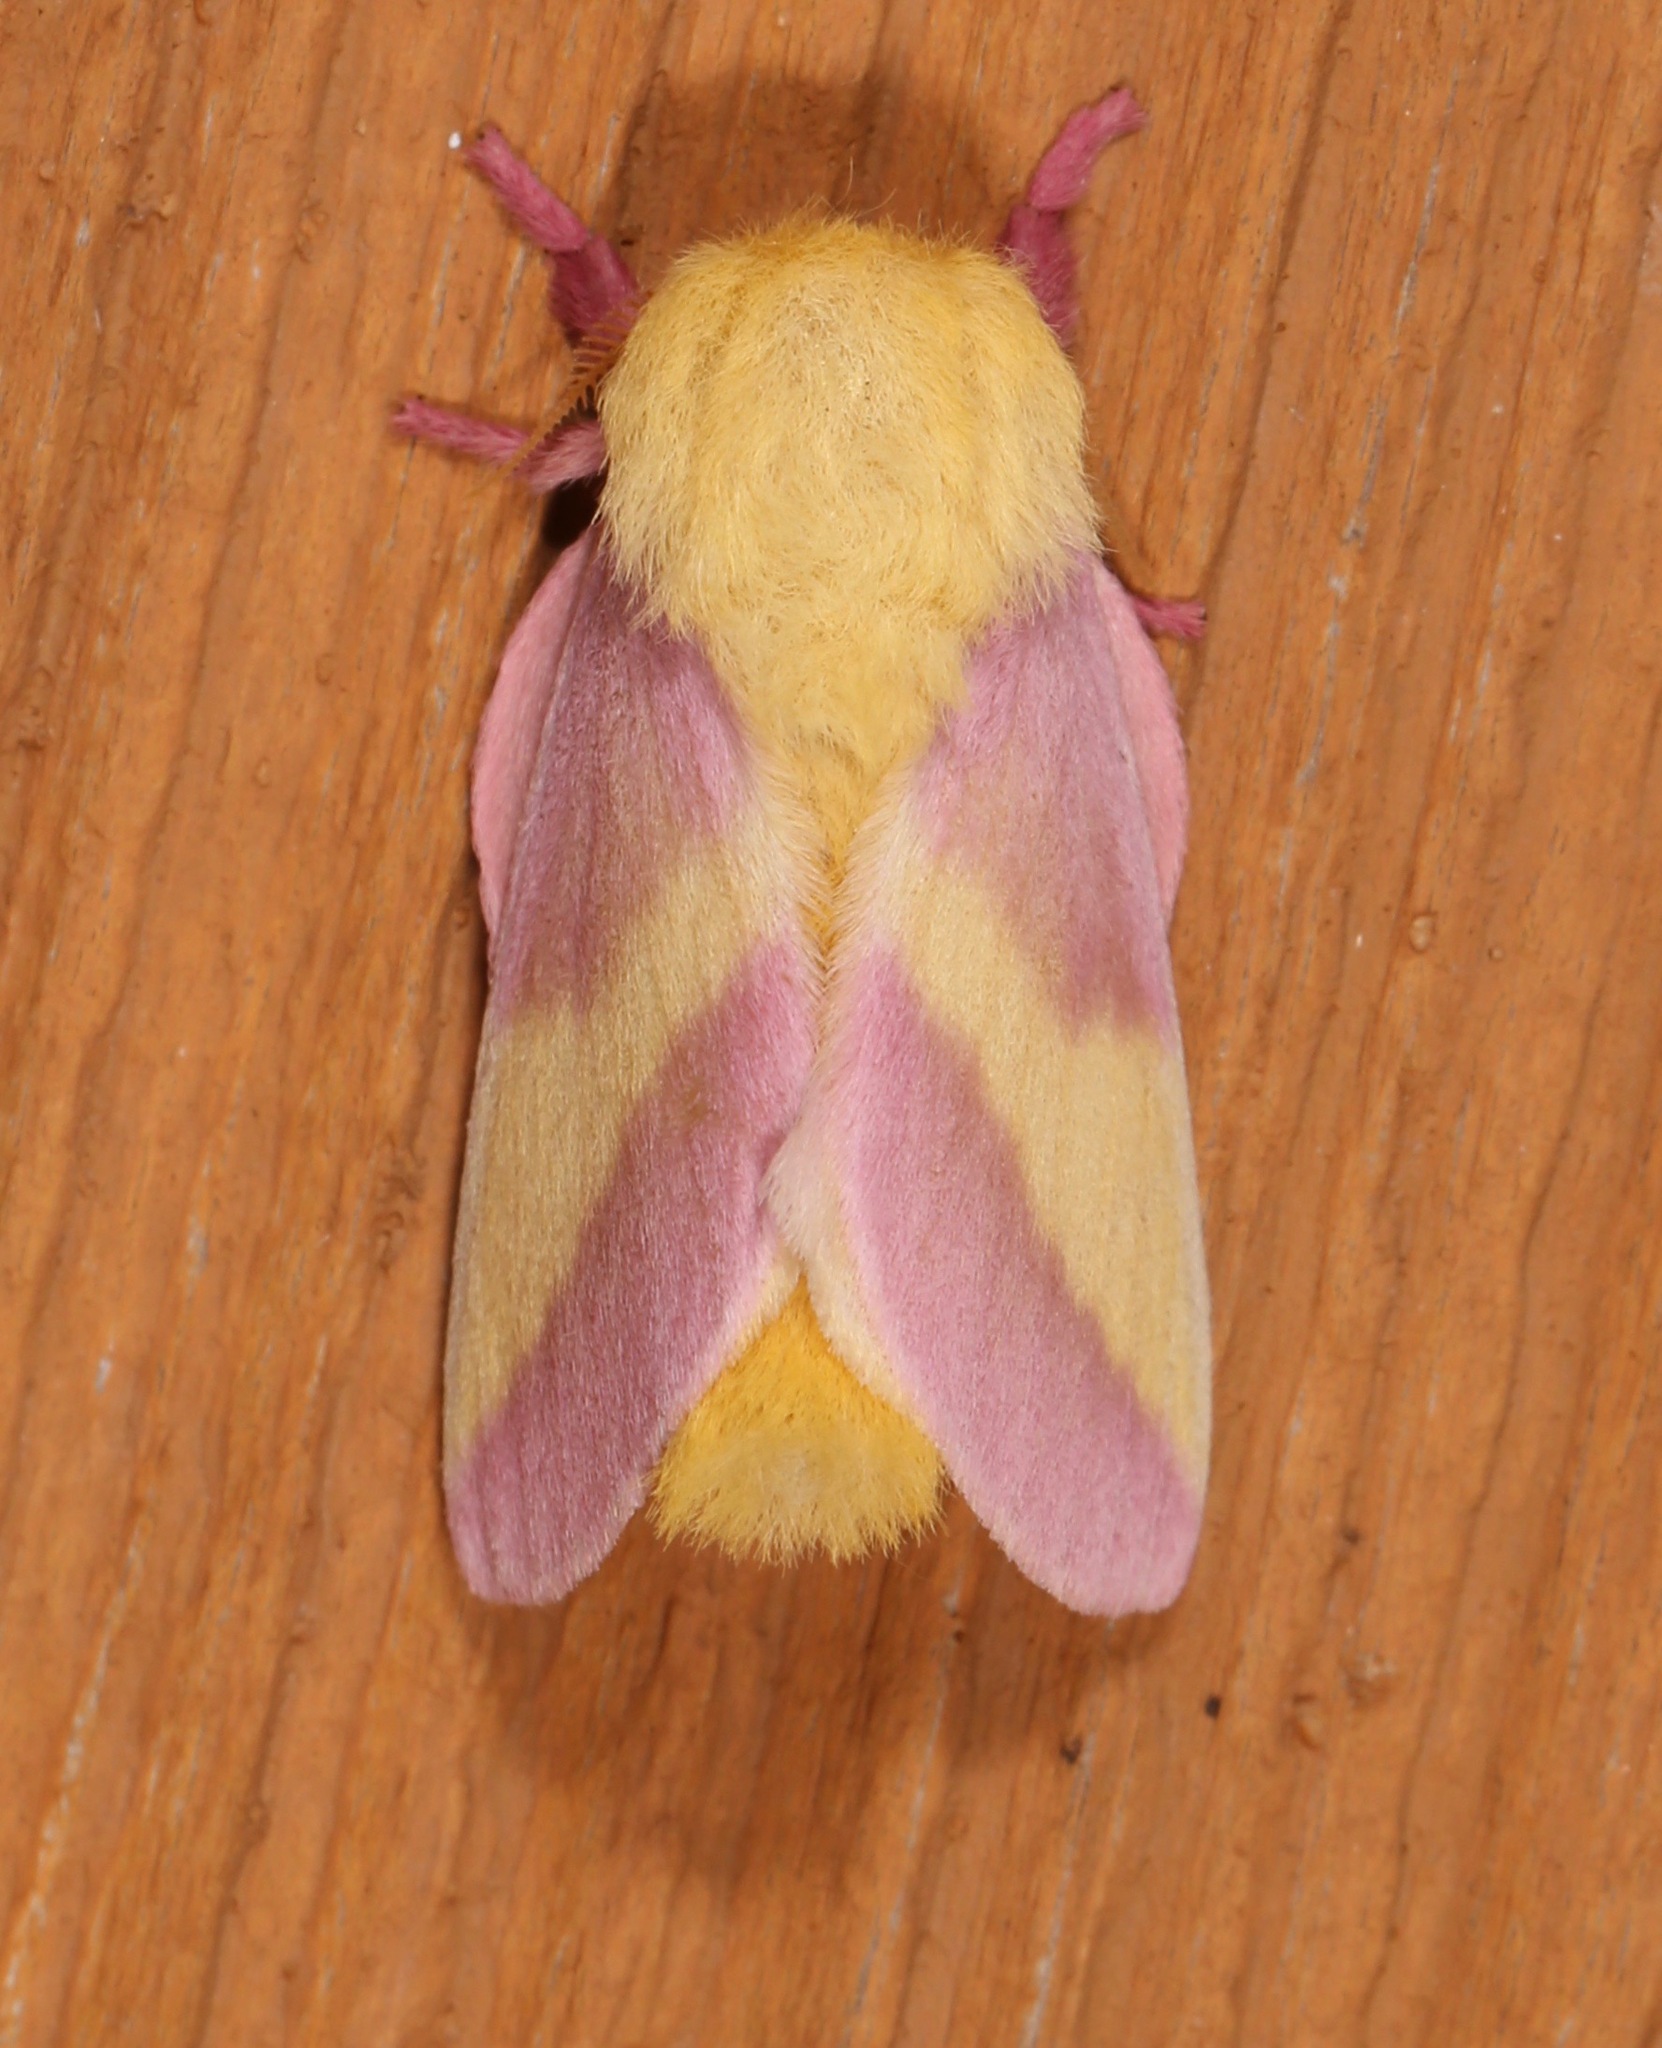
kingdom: Animalia
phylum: Arthropoda
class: Insecta
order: Lepidoptera
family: Saturniidae
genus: Dryocampa
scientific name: Dryocampa rubicunda
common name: Rosy maple moth
